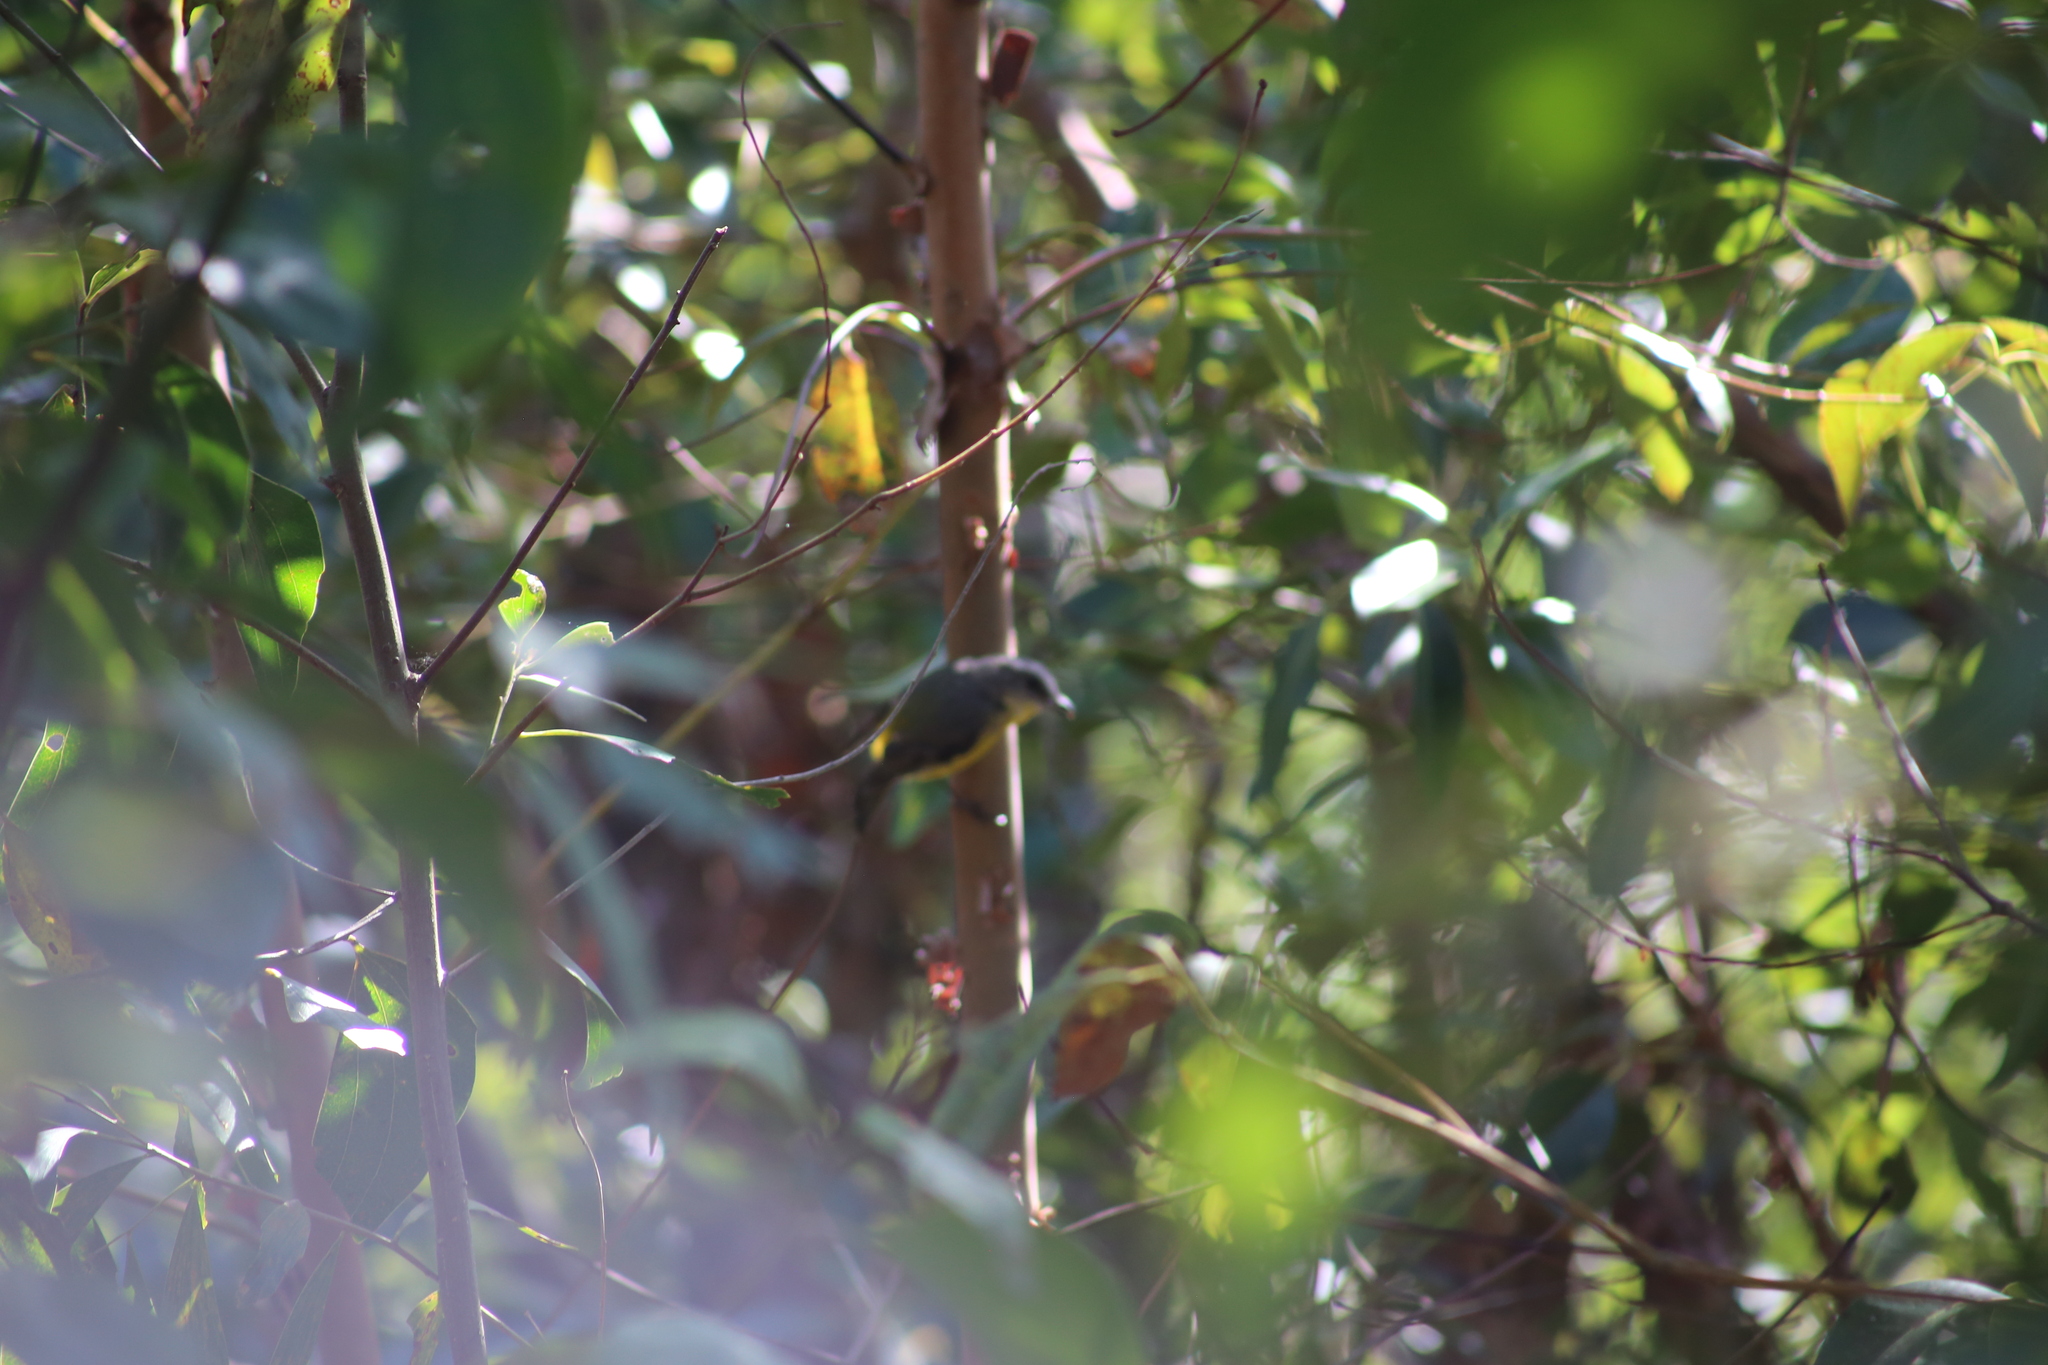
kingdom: Animalia
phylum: Chordata
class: Aves
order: Passeriformes
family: Petroicidae
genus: Eopsaltria
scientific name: Eopsaltria australis
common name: Eastern yellow robin
